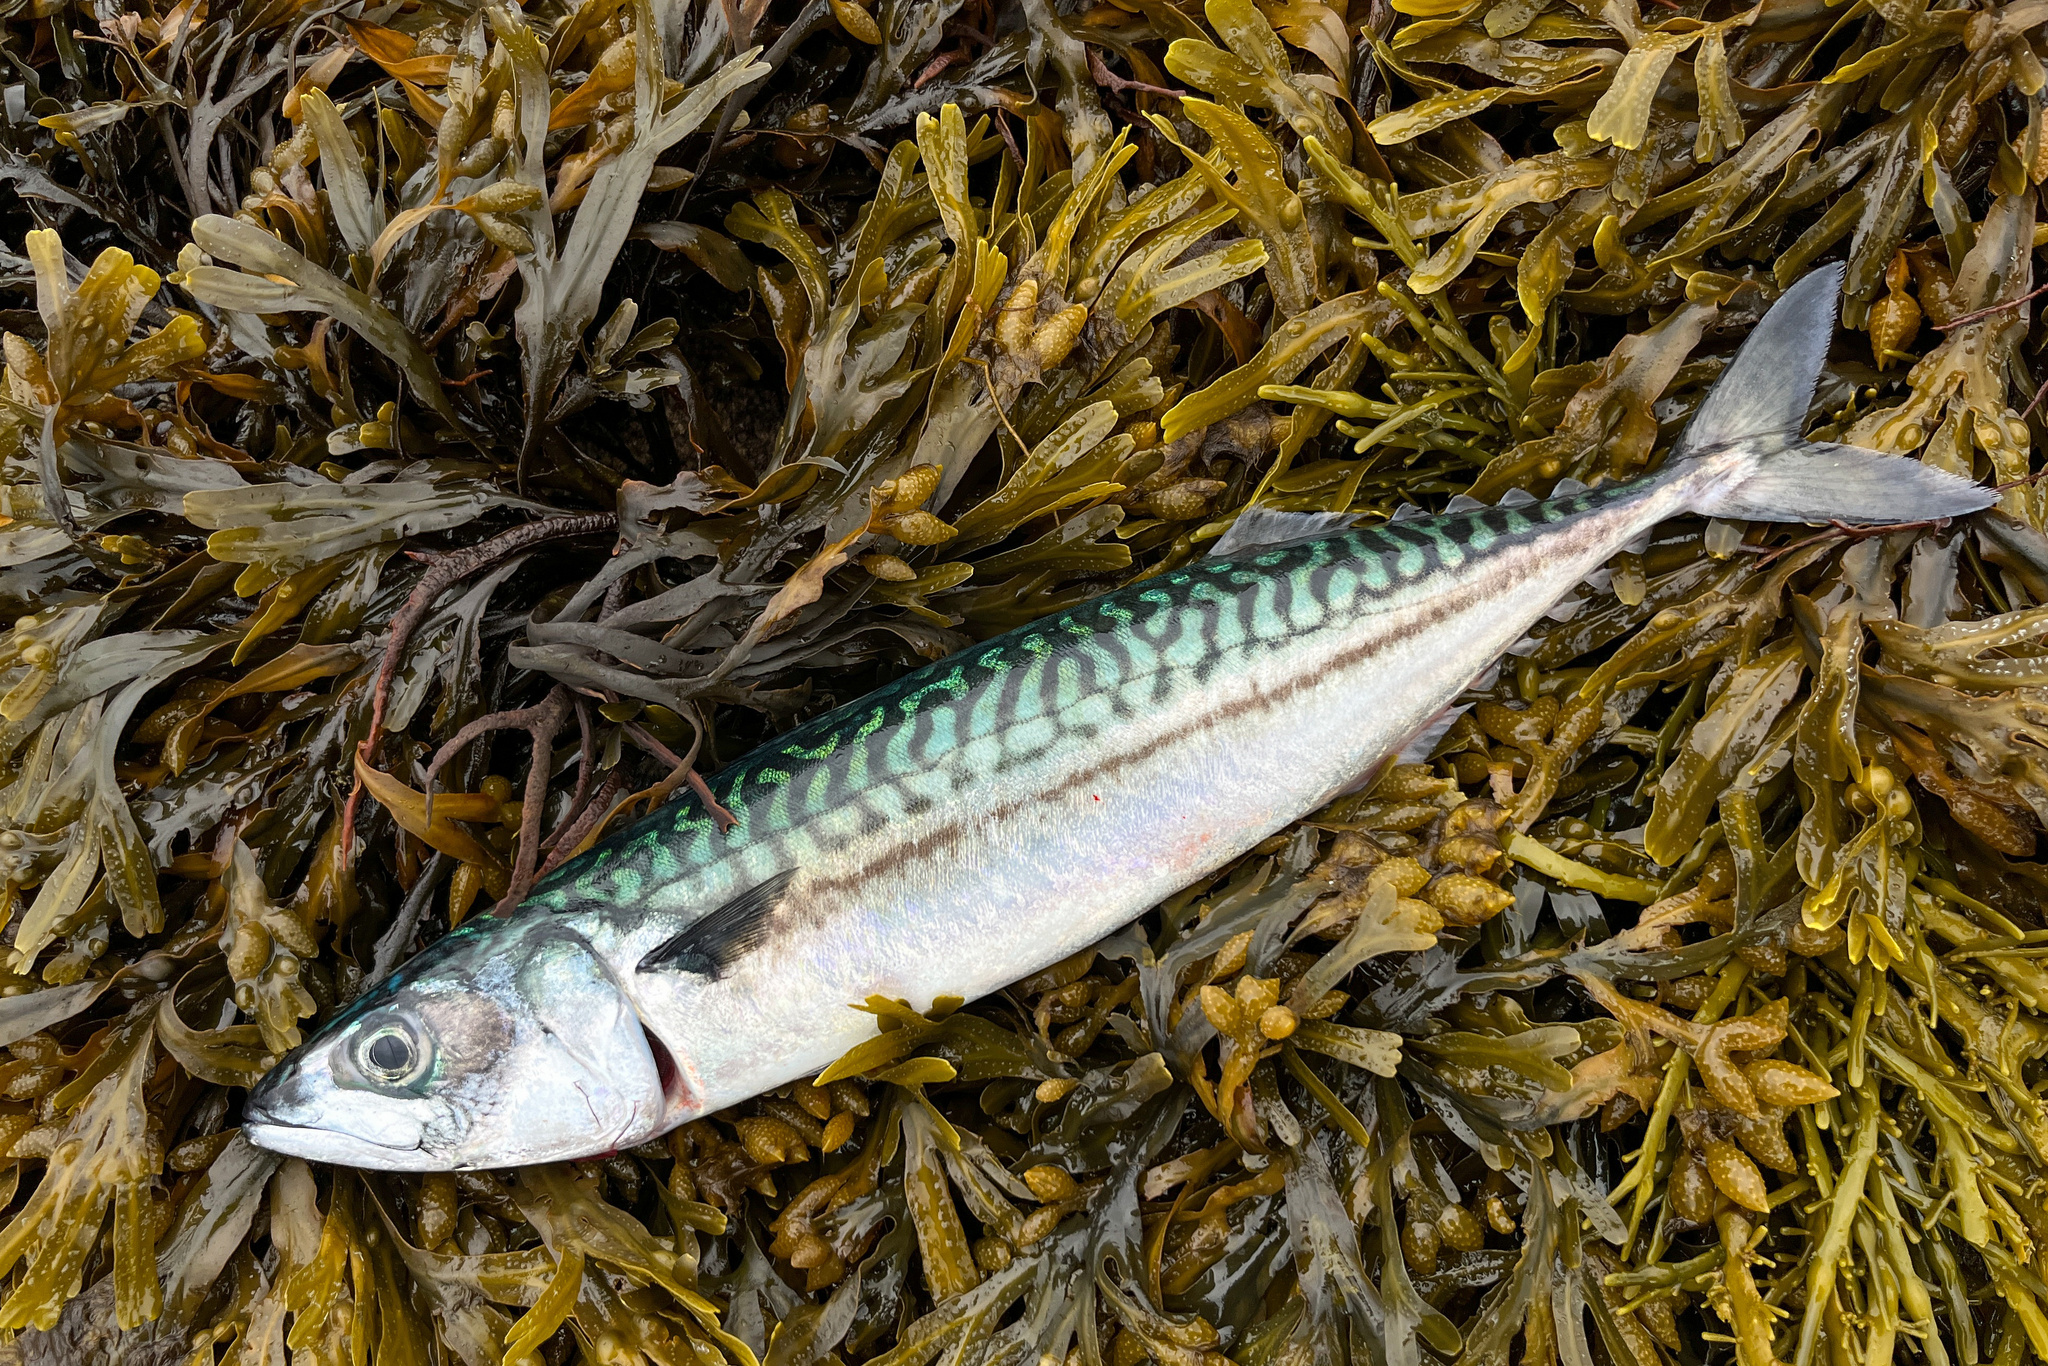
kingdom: Animalia
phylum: Chordata
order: Perciformes
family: Scombridae
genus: Scomber
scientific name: Scomber scombrus
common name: Mackerel
